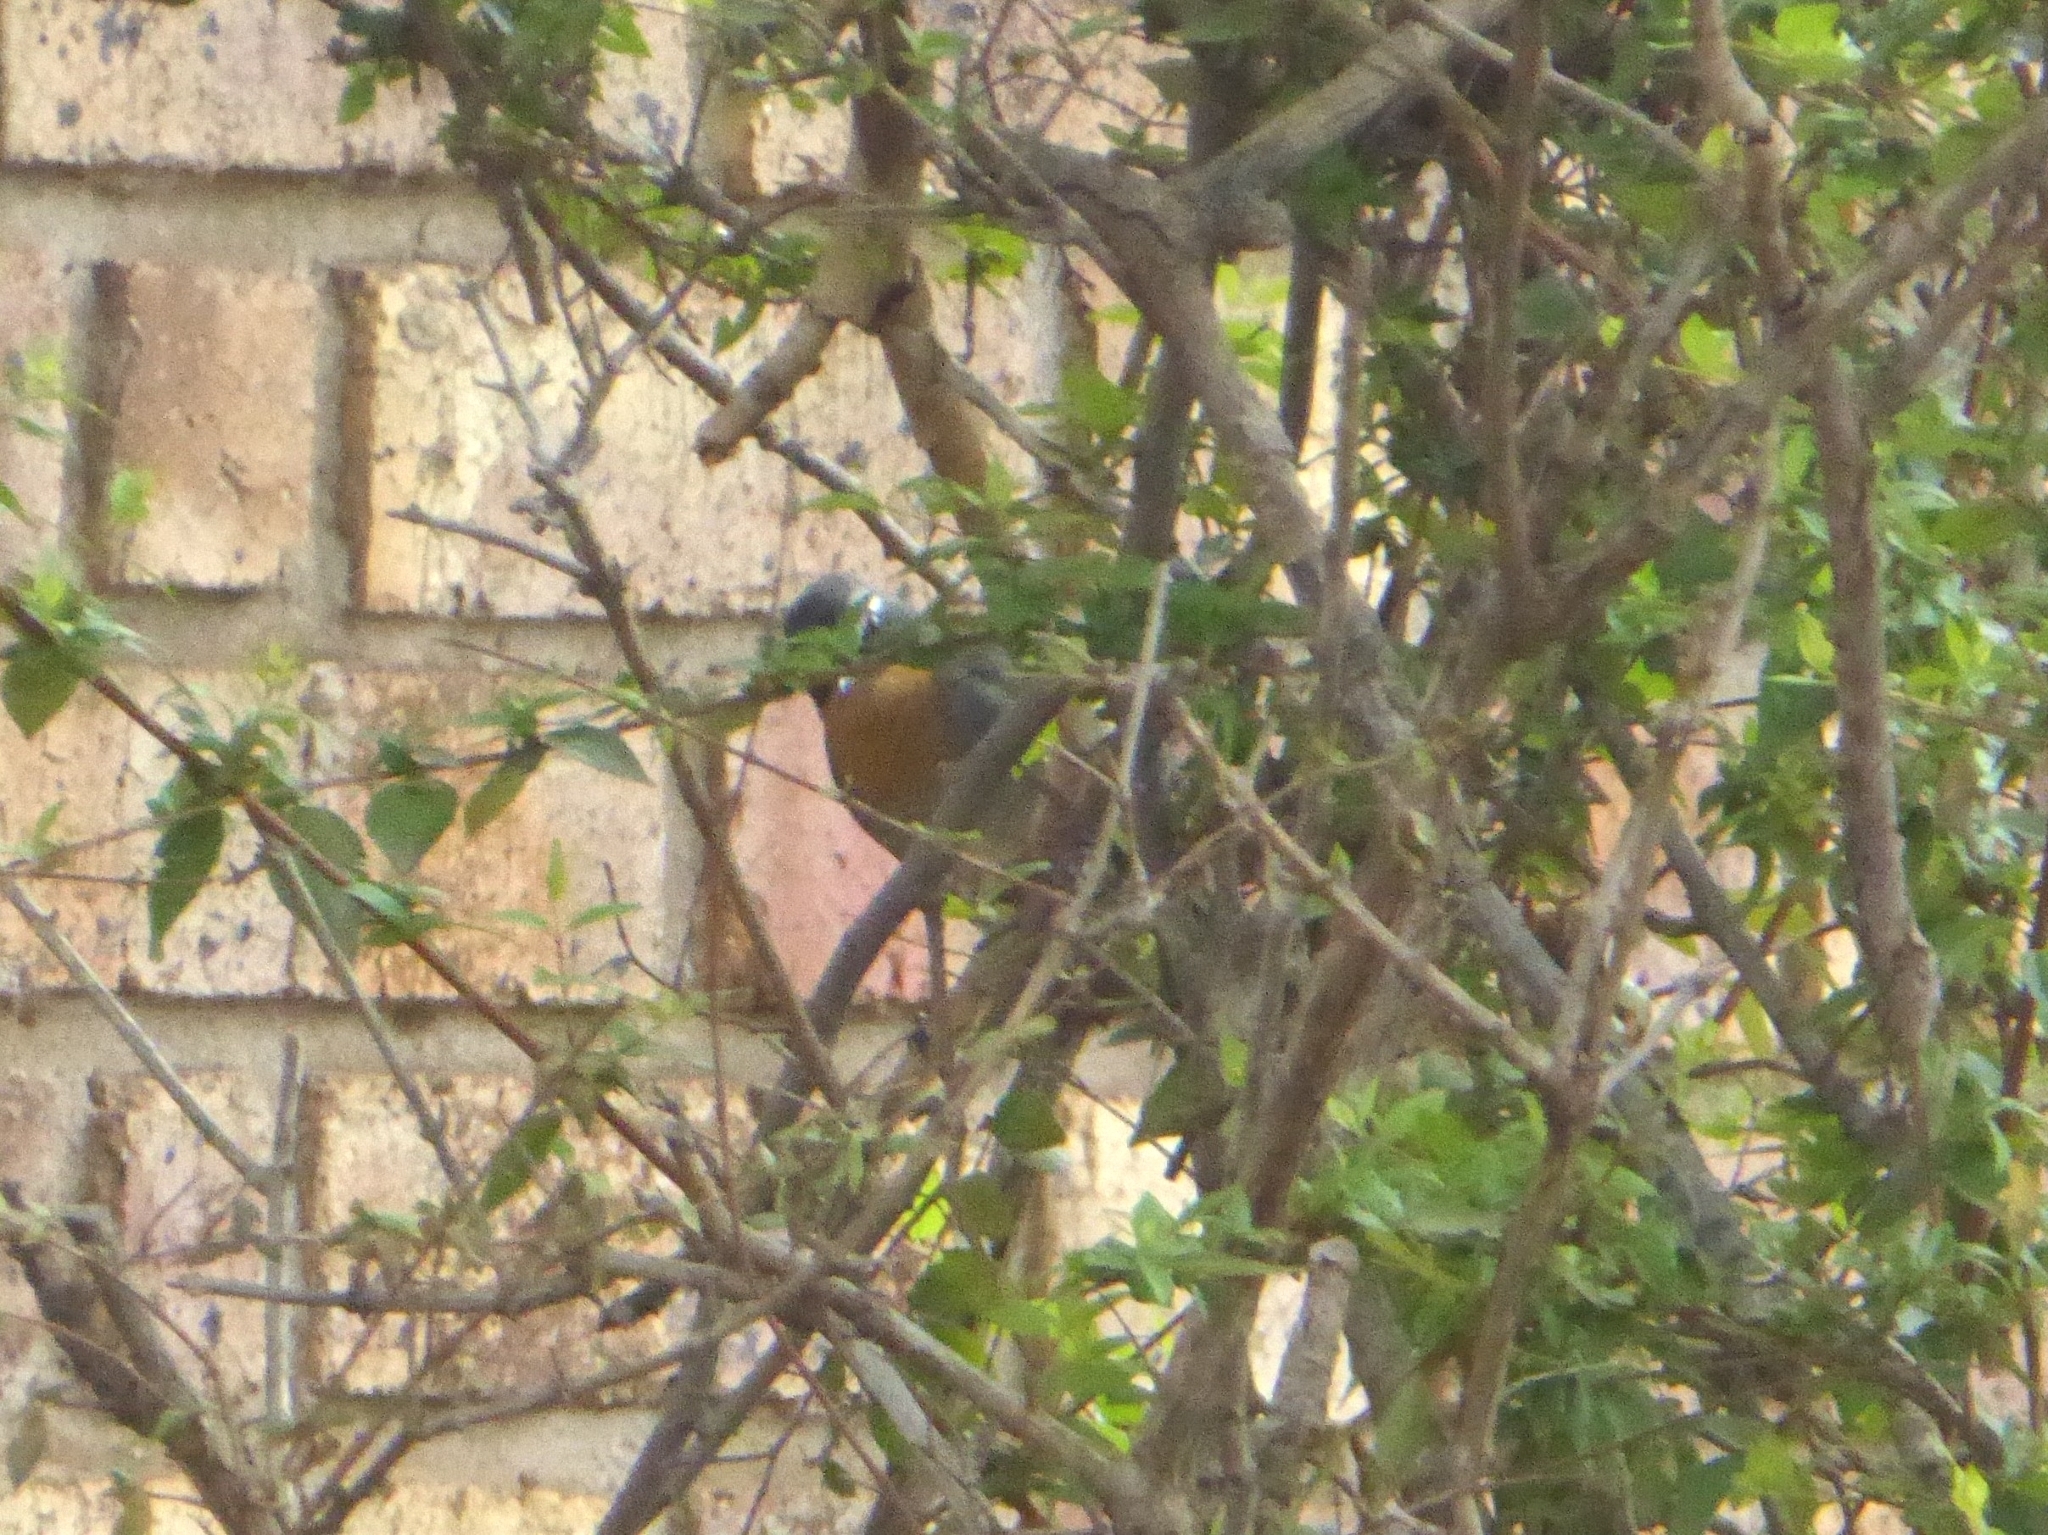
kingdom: Animalia
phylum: Chordata
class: Aves
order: Passeriformes
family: Muscicapidae
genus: Cossypha
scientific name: Cossypha caffra
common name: Cape robin-chat
